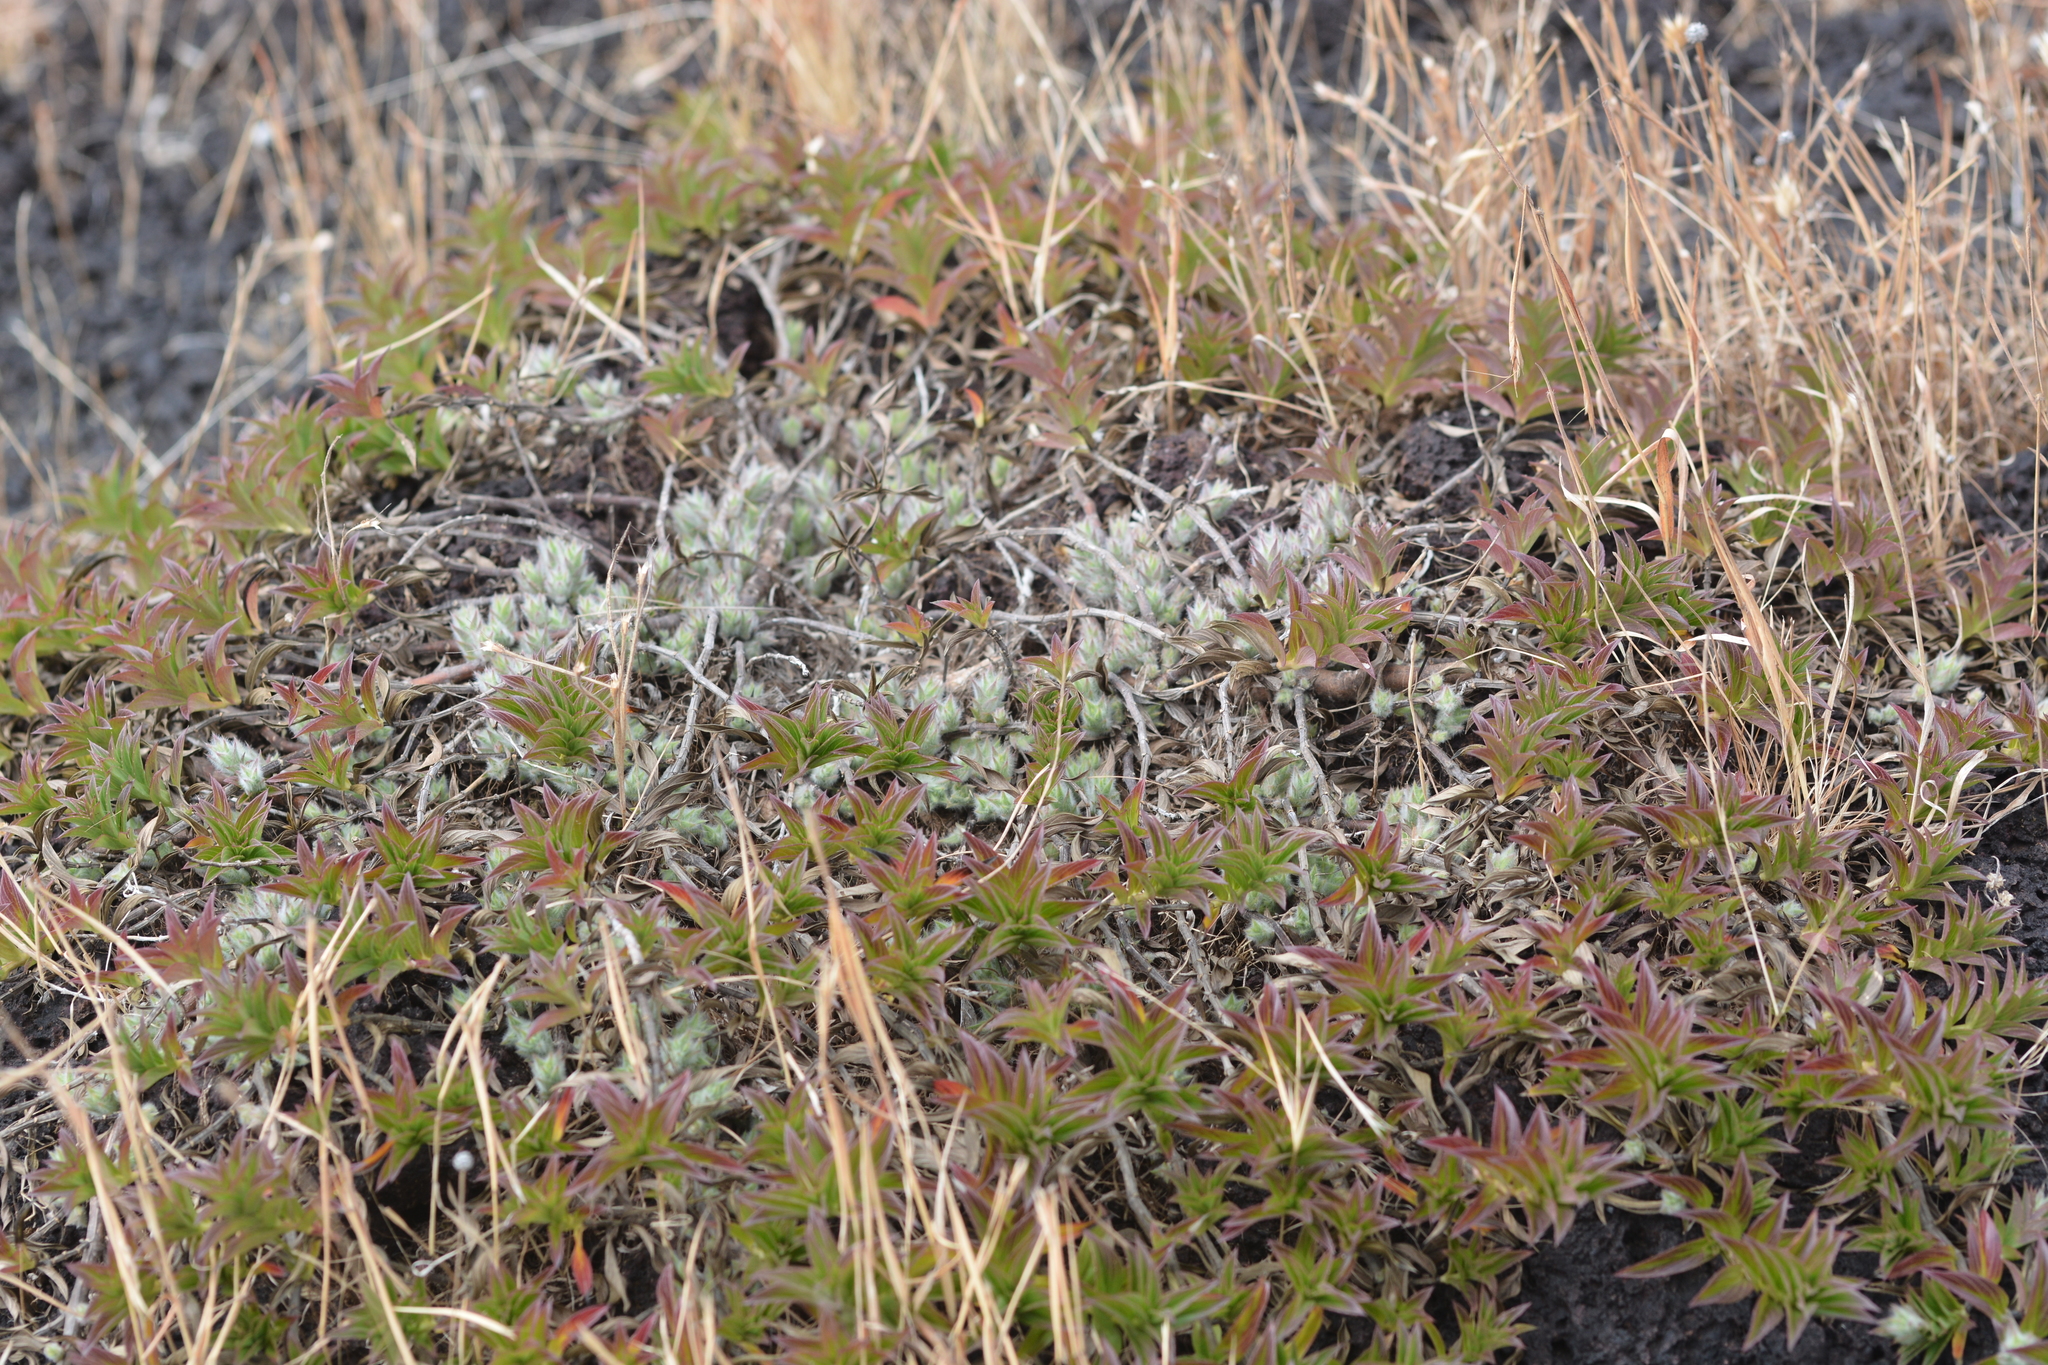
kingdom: Plantae
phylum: Tracheophyta
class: Magnoliopsida
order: Lamiales
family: Acanthaceae
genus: Lepidagathis
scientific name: Lepidagathis clavata
